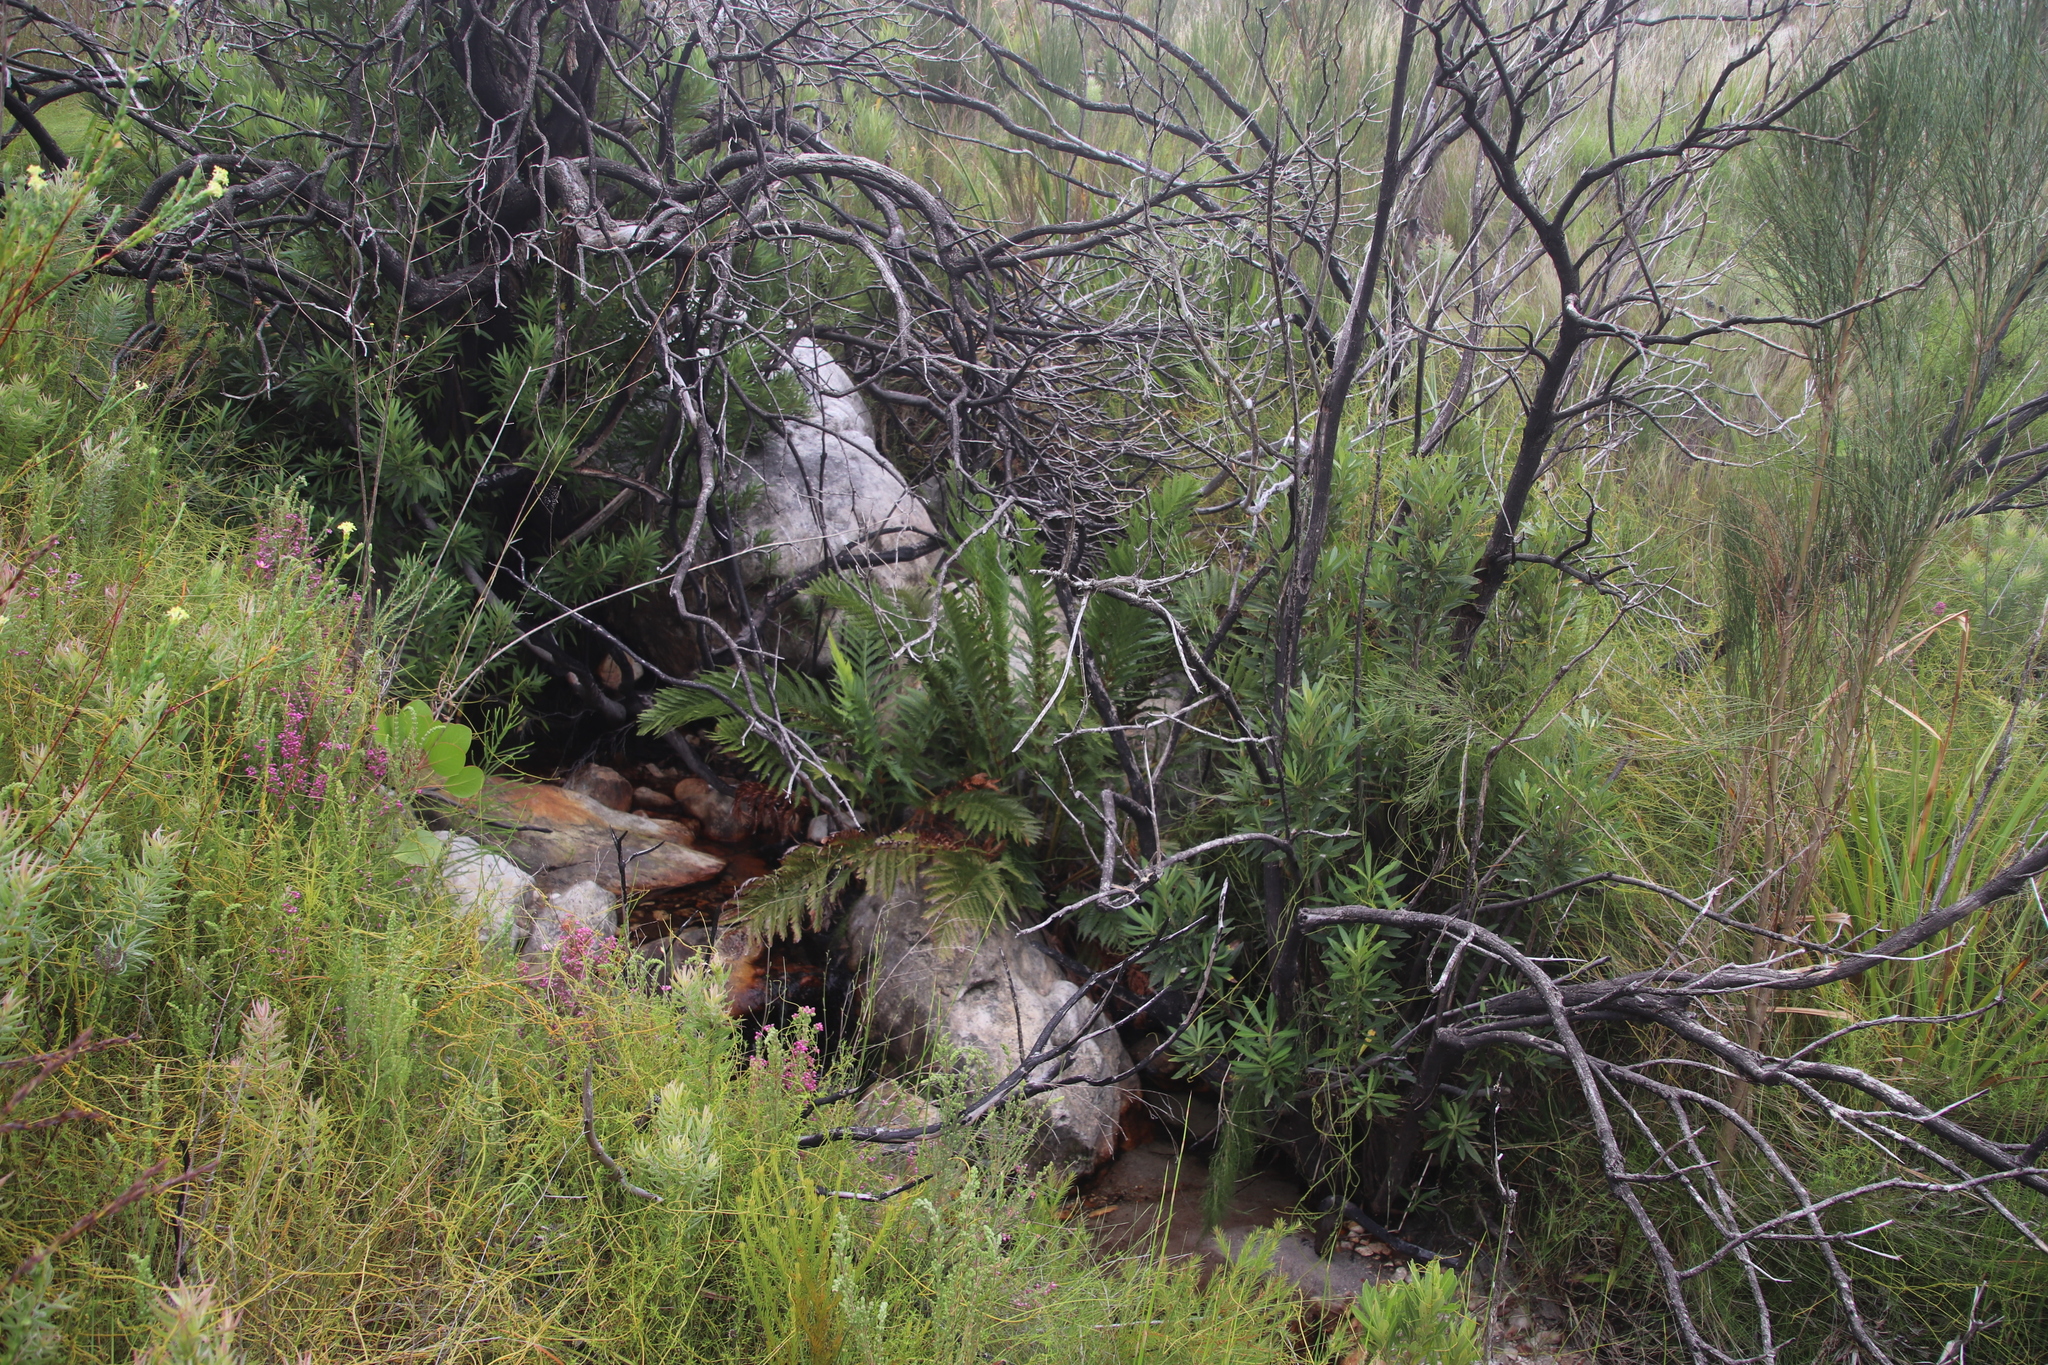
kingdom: Plantae
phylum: Tracheophyta
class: Polypodiopsida
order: Osmundales
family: Osmundaceae
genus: Todea
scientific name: Todea barbara
